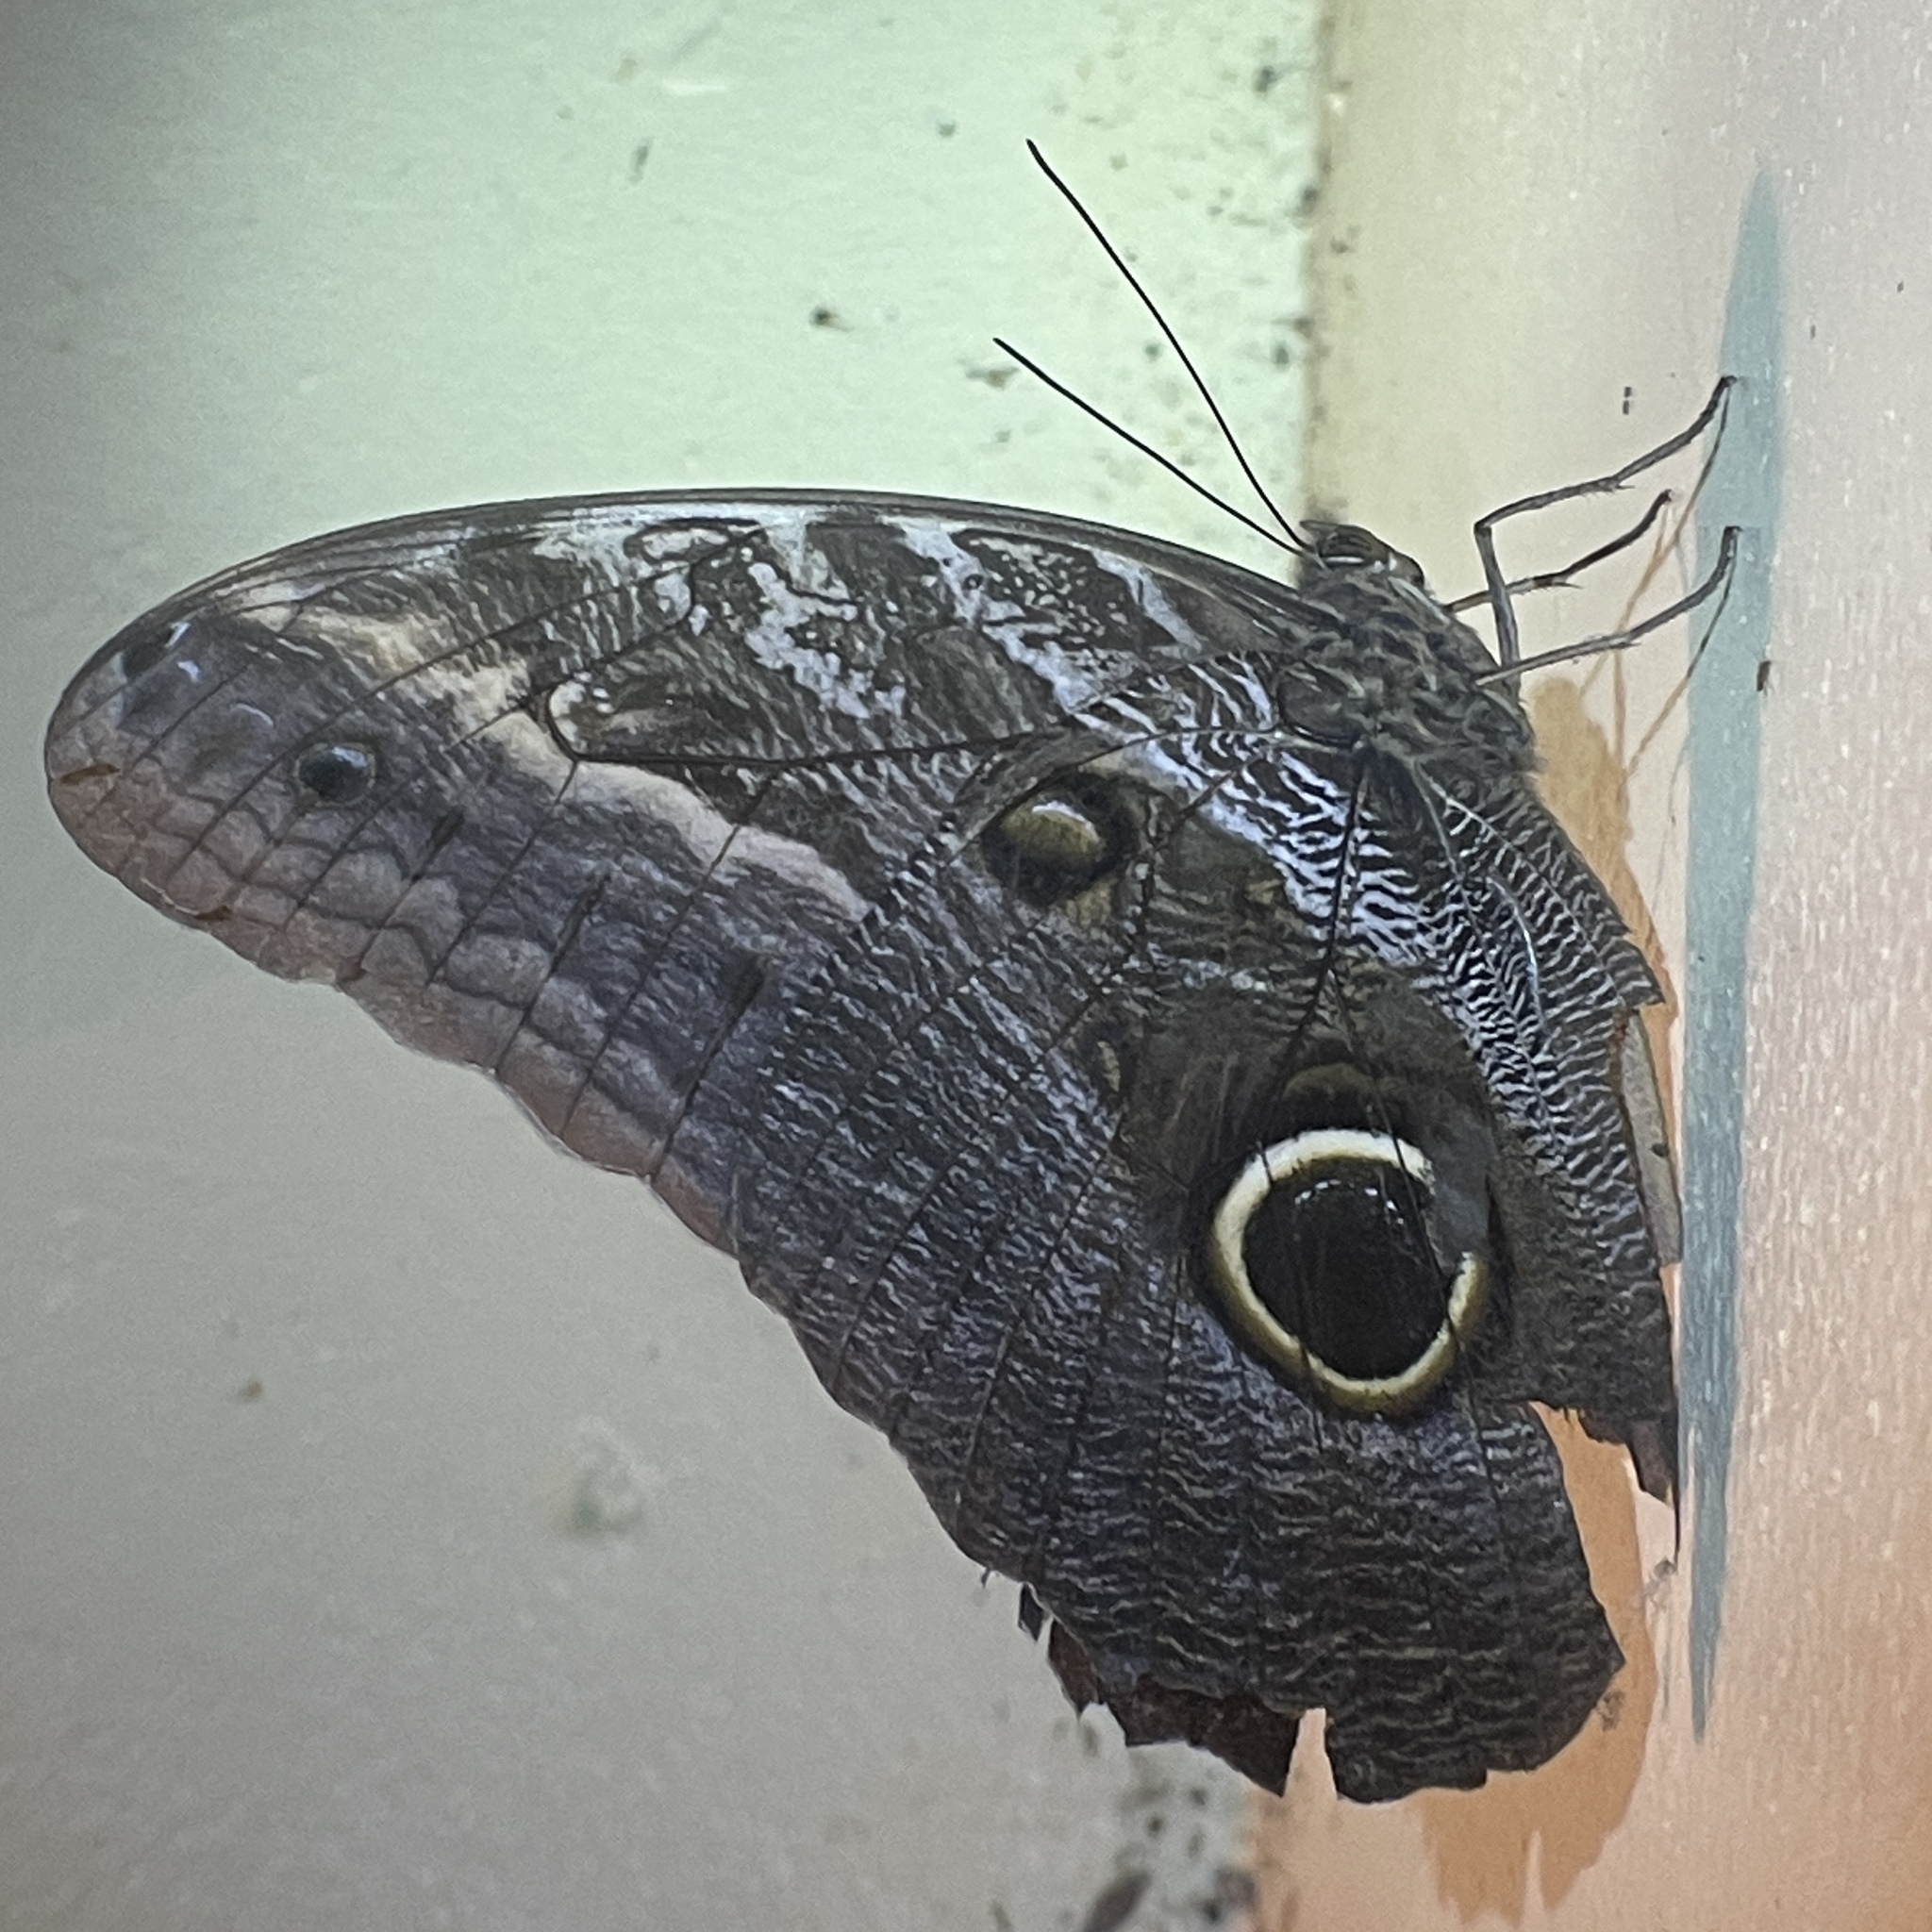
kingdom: Animalia
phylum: Arthropoda
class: Insecta
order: Lepidoptera
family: Nymphalidae
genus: Caligo
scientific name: Caligo teucer
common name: Teucer owl butterfly
